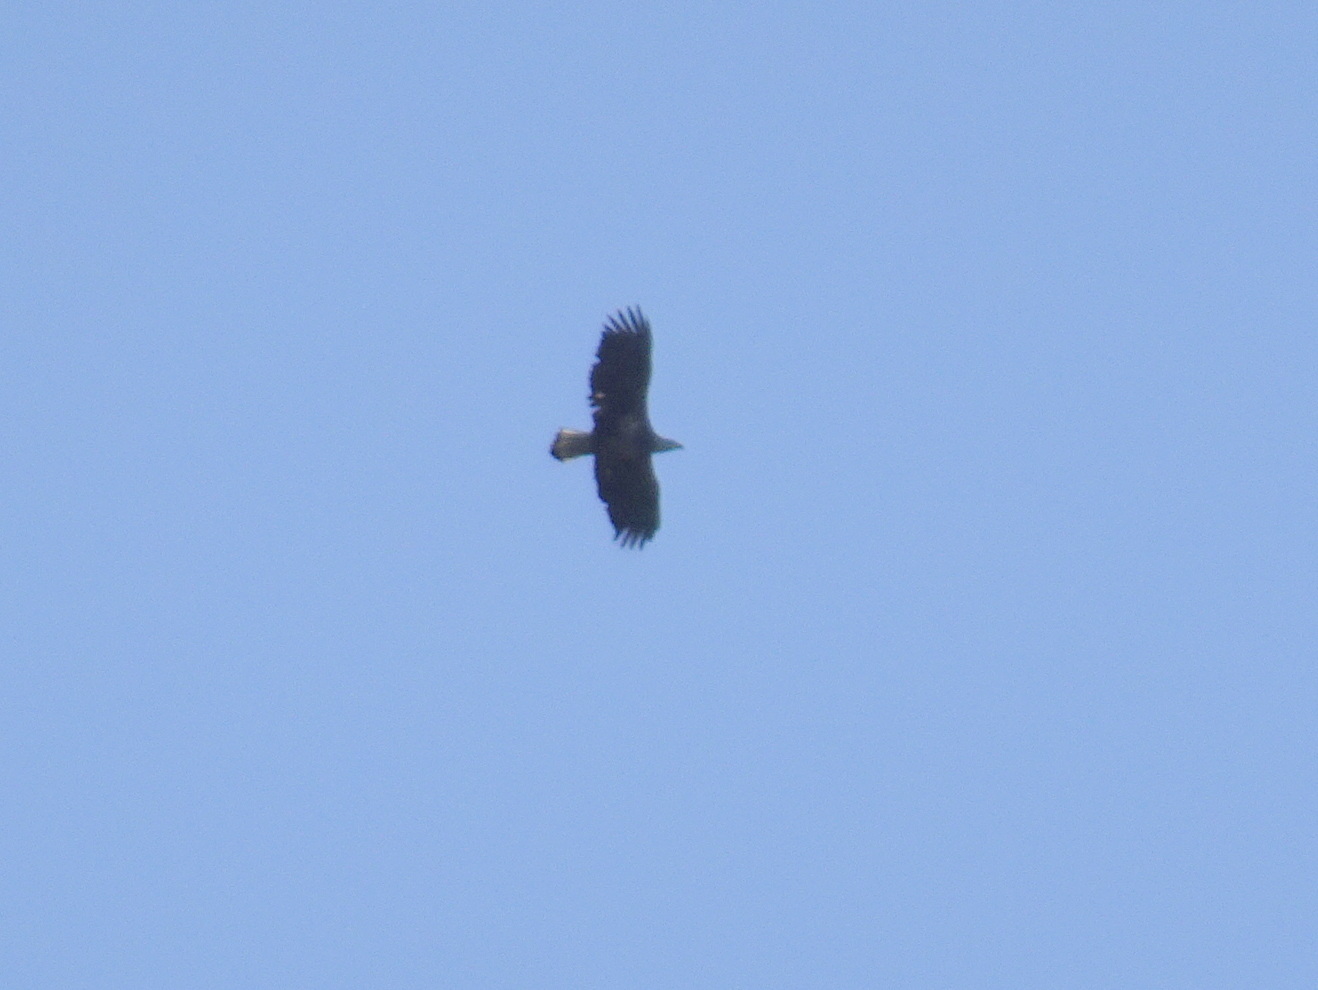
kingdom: Animalia
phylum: Chordata
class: Aves
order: Accipitriformes
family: Accipitridae
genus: Haliaeetus
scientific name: Haliaeetus leucocephalus
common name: Bald eagle
